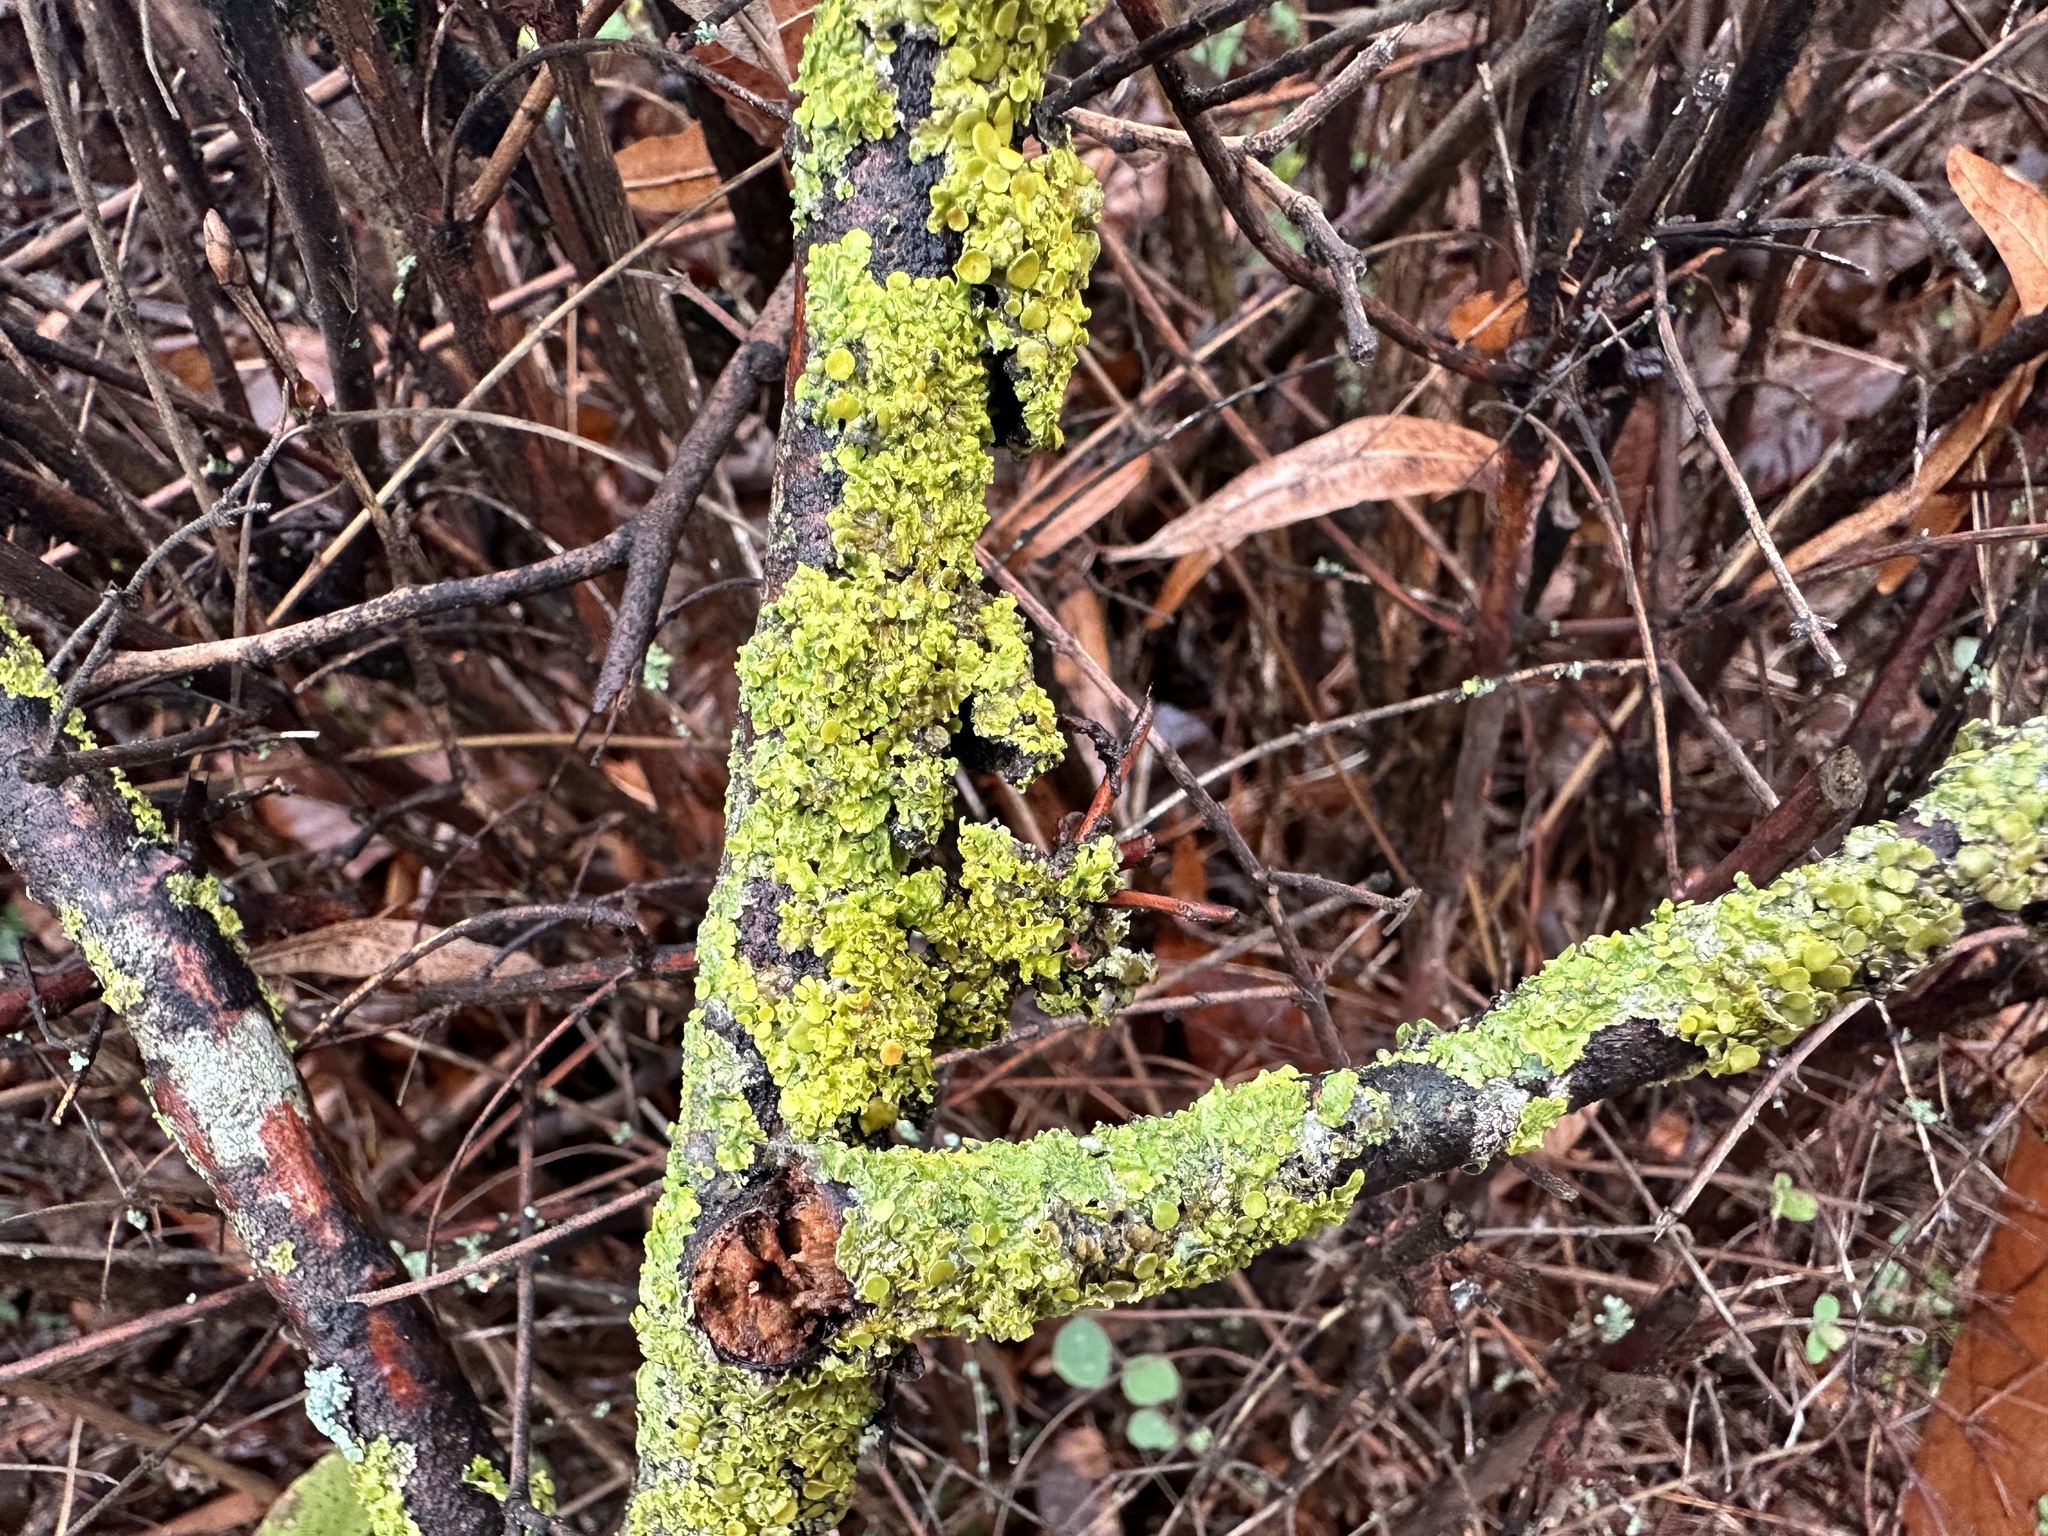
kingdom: Fungi
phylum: Ascomycota
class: Lecanoromycetes
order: Teloschistales
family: Teloschistaceae
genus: Xanthoria
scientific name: Xanthoria parietina
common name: Common orange lichen
